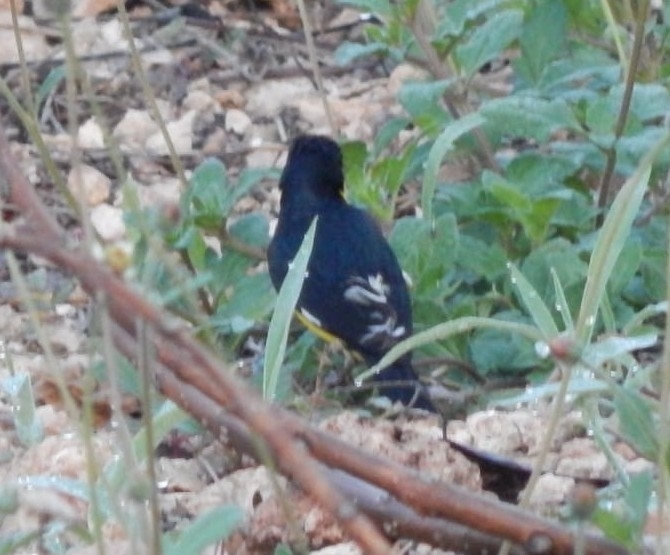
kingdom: Animalia
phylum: Chordata
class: Aves
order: Passeriformes
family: Fringillidae
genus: Spinus
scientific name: Spinus psaltria
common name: Lesser goldfinch
